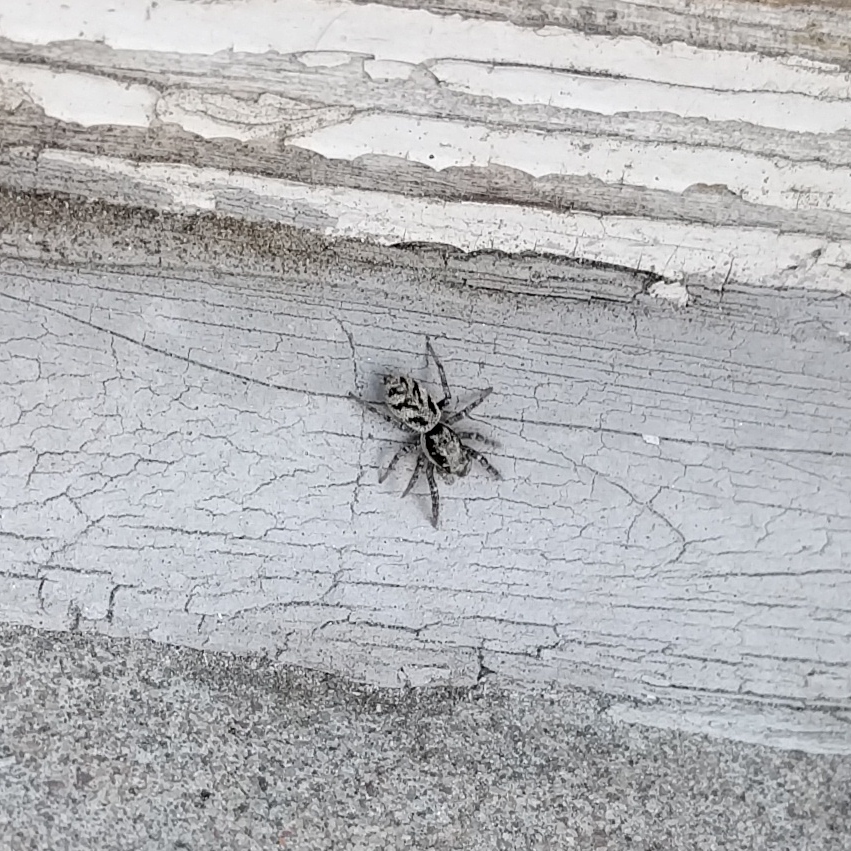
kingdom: Animalia
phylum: Arthropoda
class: Arachnida
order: Araneae
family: Salticidae
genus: Salticus
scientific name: Salticus cingulatus
